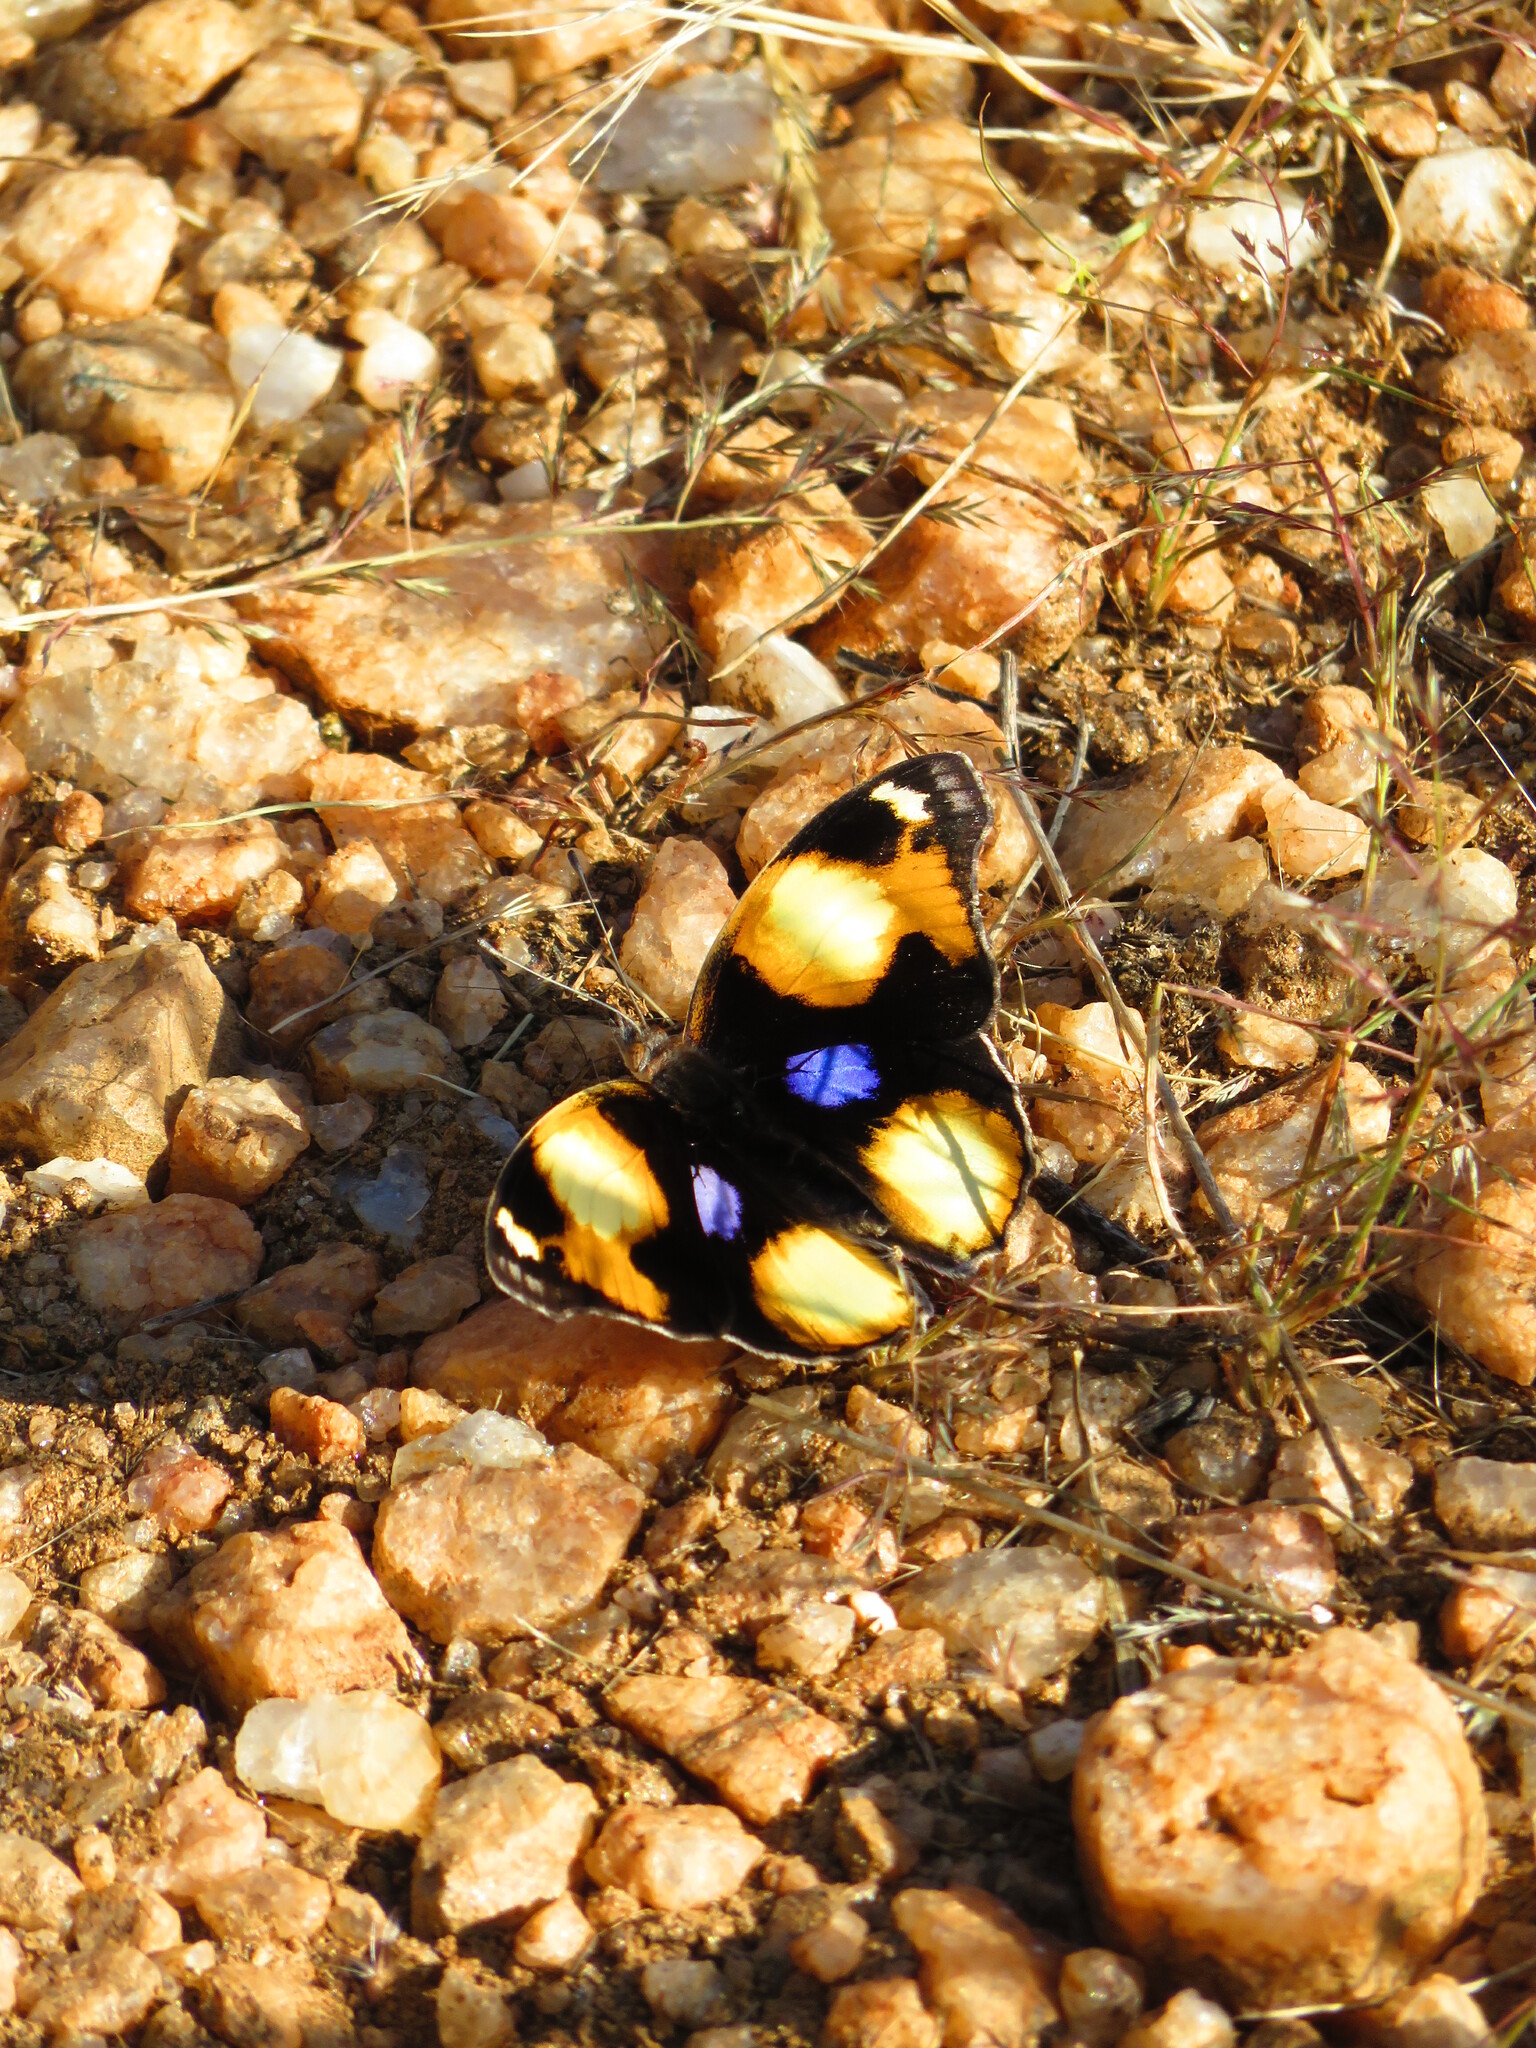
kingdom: Animalia
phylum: Arthropoda
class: Insecta
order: Lepidoptera
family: Nymphalidae
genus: Junonia
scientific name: Junonia hierta
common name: Yellow pansy
